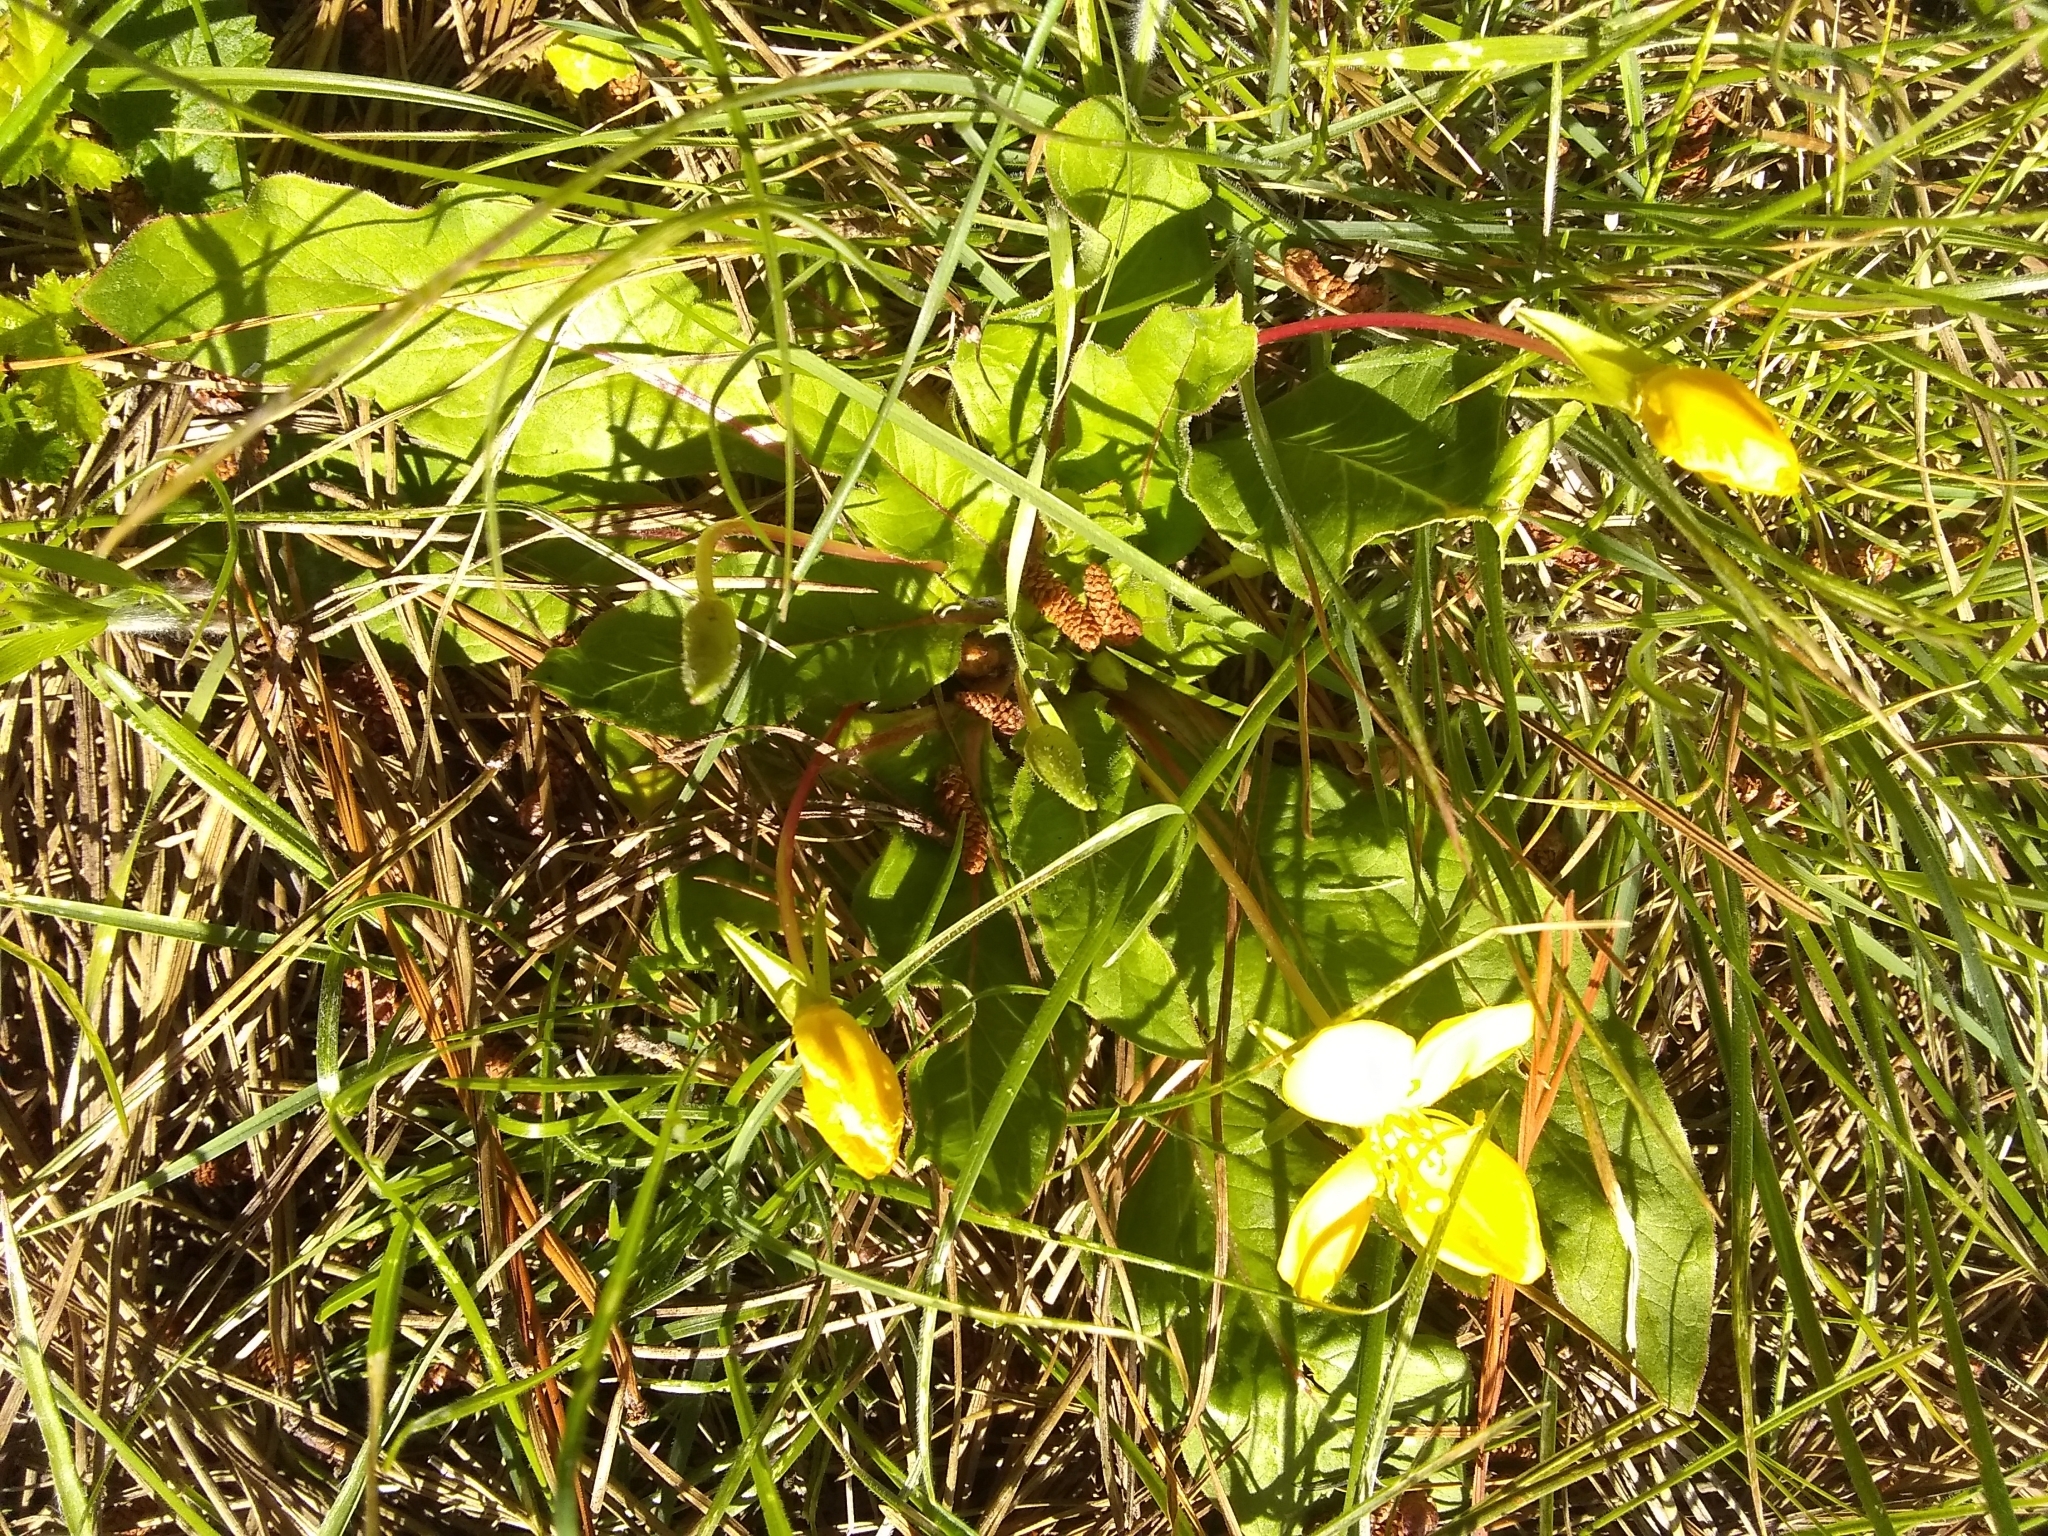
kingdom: Plantae
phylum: Tracheophyta
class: Magnoliopsida
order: Myrtales
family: Onagraceae
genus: Taraxia
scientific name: Taraxia ovata
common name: Goldeneggs
